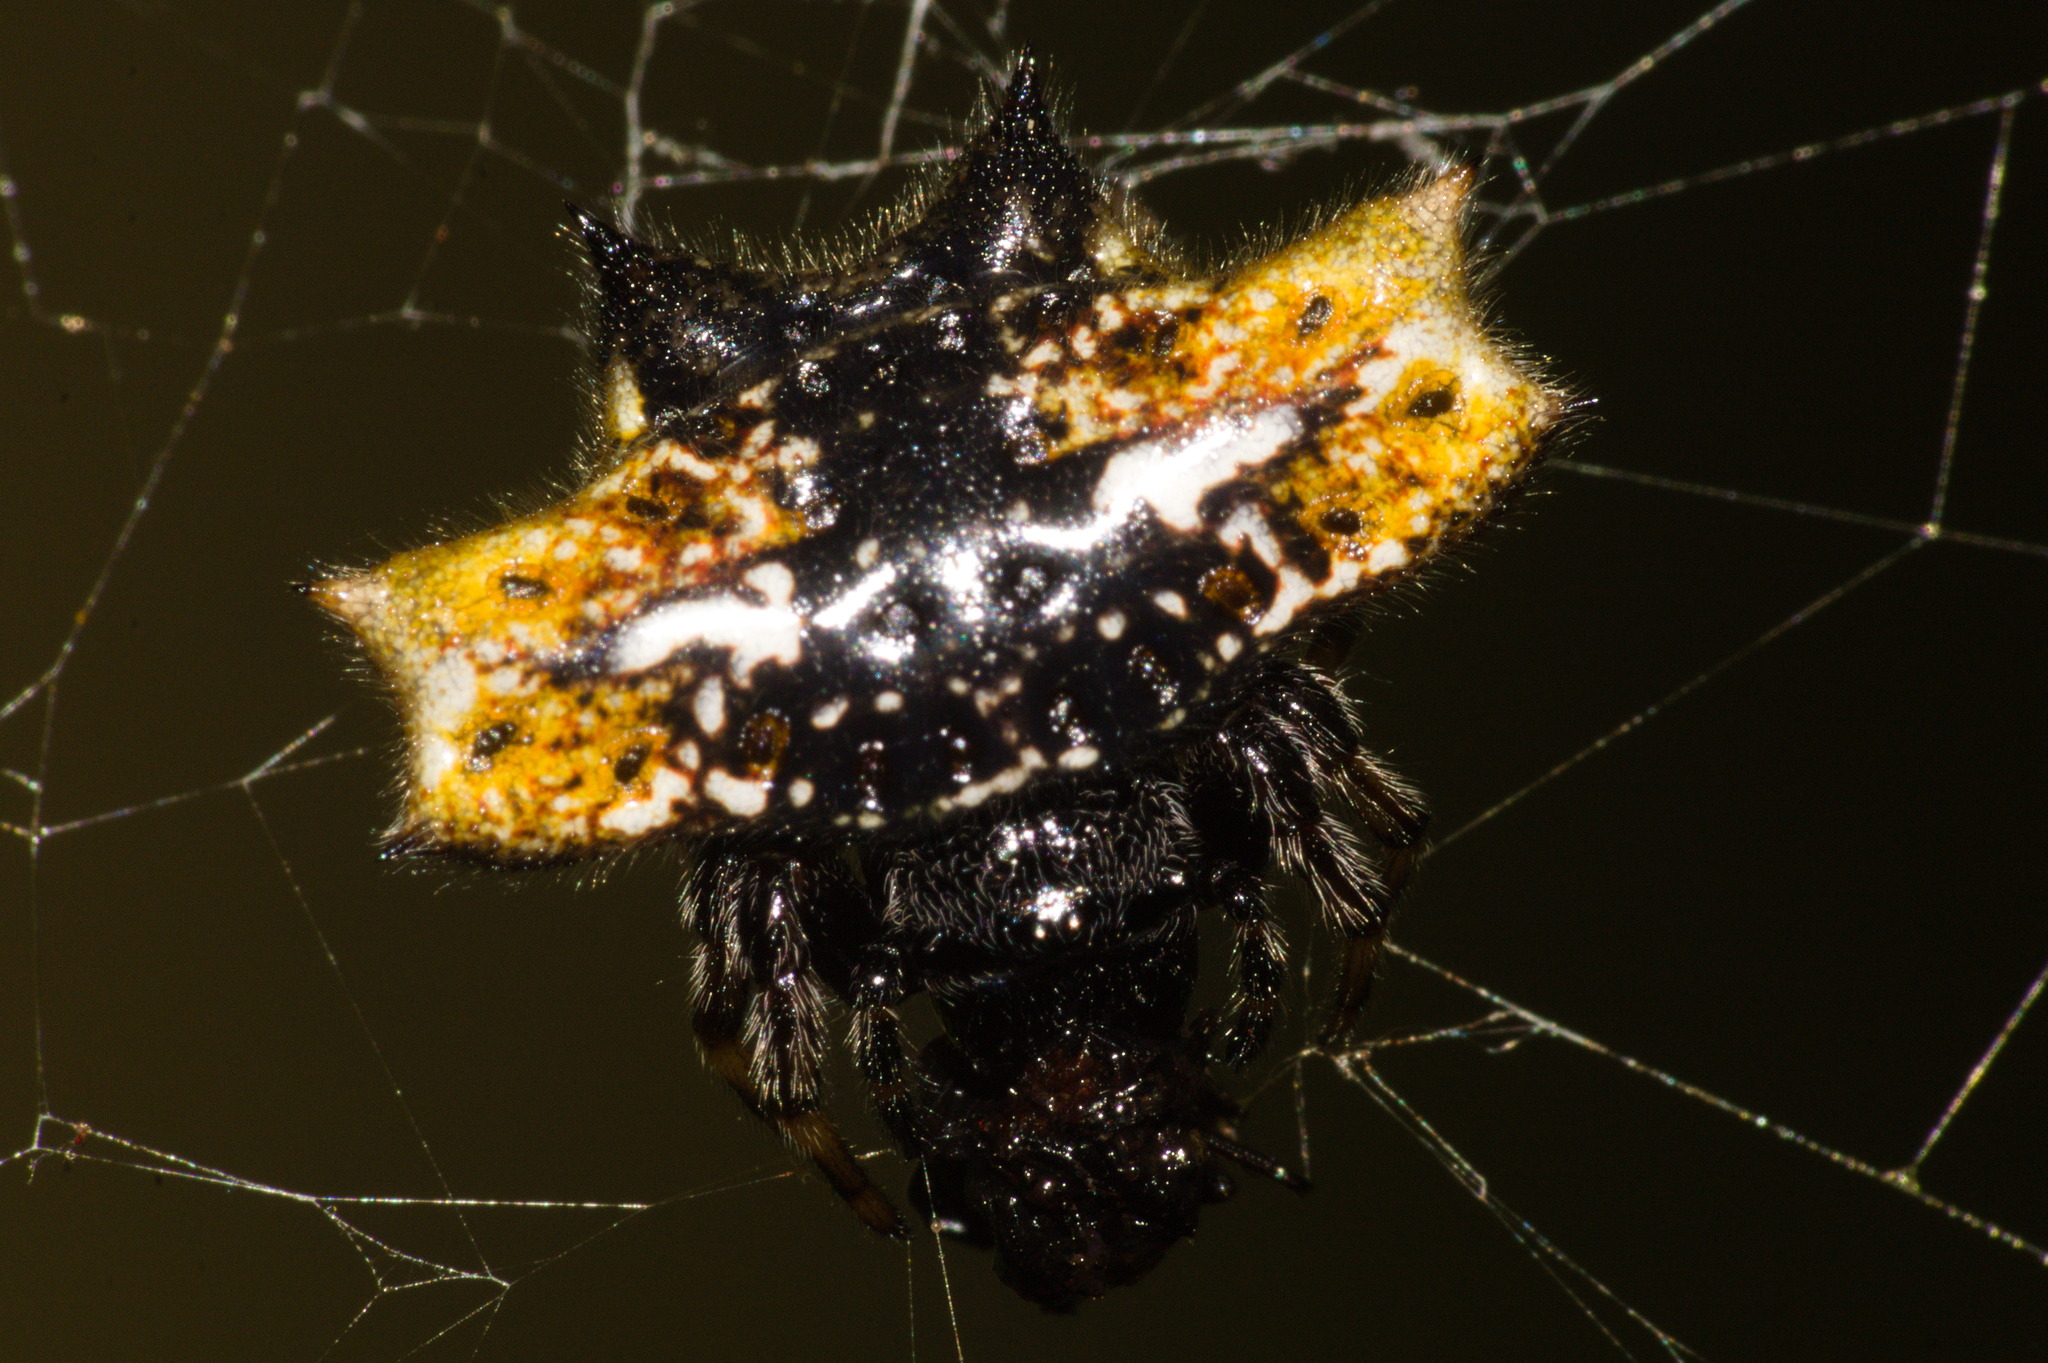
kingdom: Animalia
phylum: Arthropoda
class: Arachnida
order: Araneae
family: Araneidae
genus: Gasteracantha
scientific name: Gasteracantha cancriformis
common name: Orb weavers
